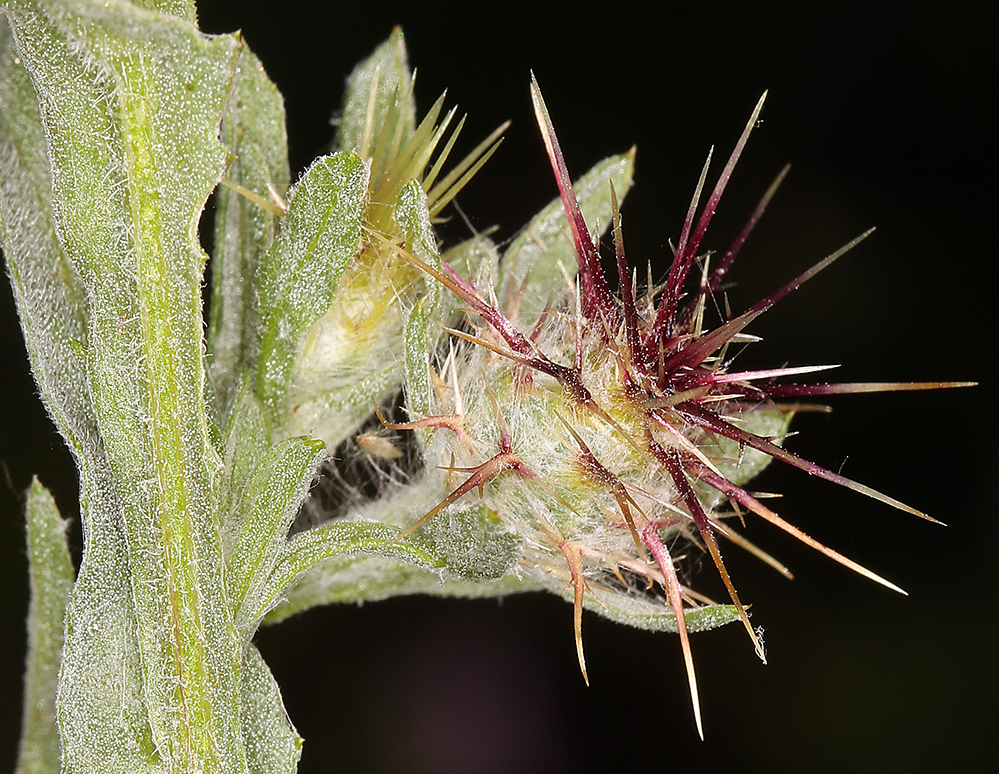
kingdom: Plantae
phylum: Tracheophyta
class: Magnoliopsida
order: Asterales
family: Asteraceae
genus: Centaurea
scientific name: Centaurea melitensis
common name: Maltese star-thistle
